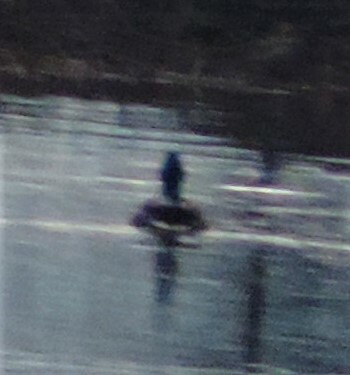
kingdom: Animalia
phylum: Chordata
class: Aves
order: Anseriformes
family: Anatidae
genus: Anas
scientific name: Anas platyrhynchos
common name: Mallard
